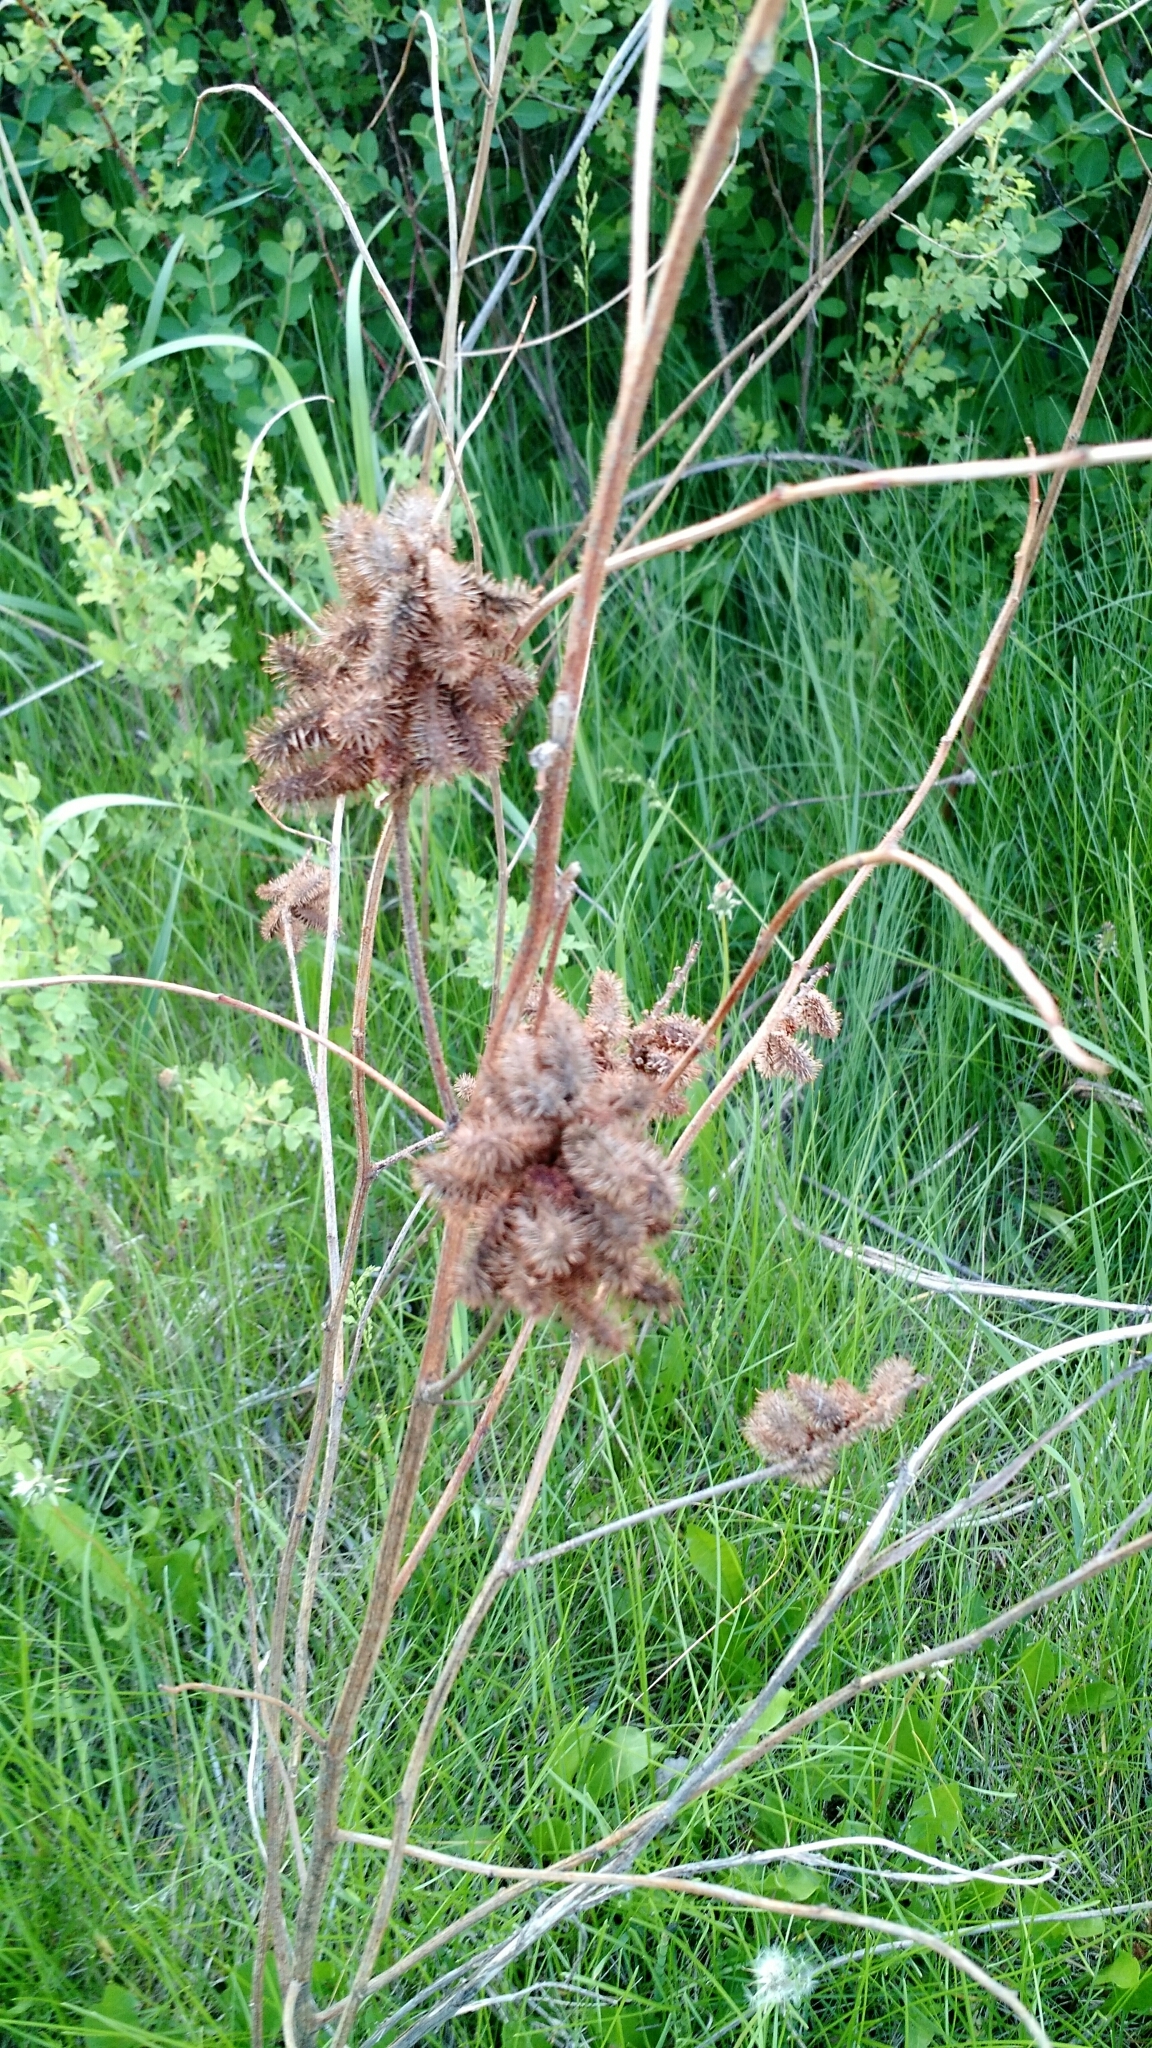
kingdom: Plantae
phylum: Tracheophyta
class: Magnoliopsida
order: Fabales
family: Fabaceae
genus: Glycyrrhiza
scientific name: Glycyrrhiza lepidota
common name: American liquorice
